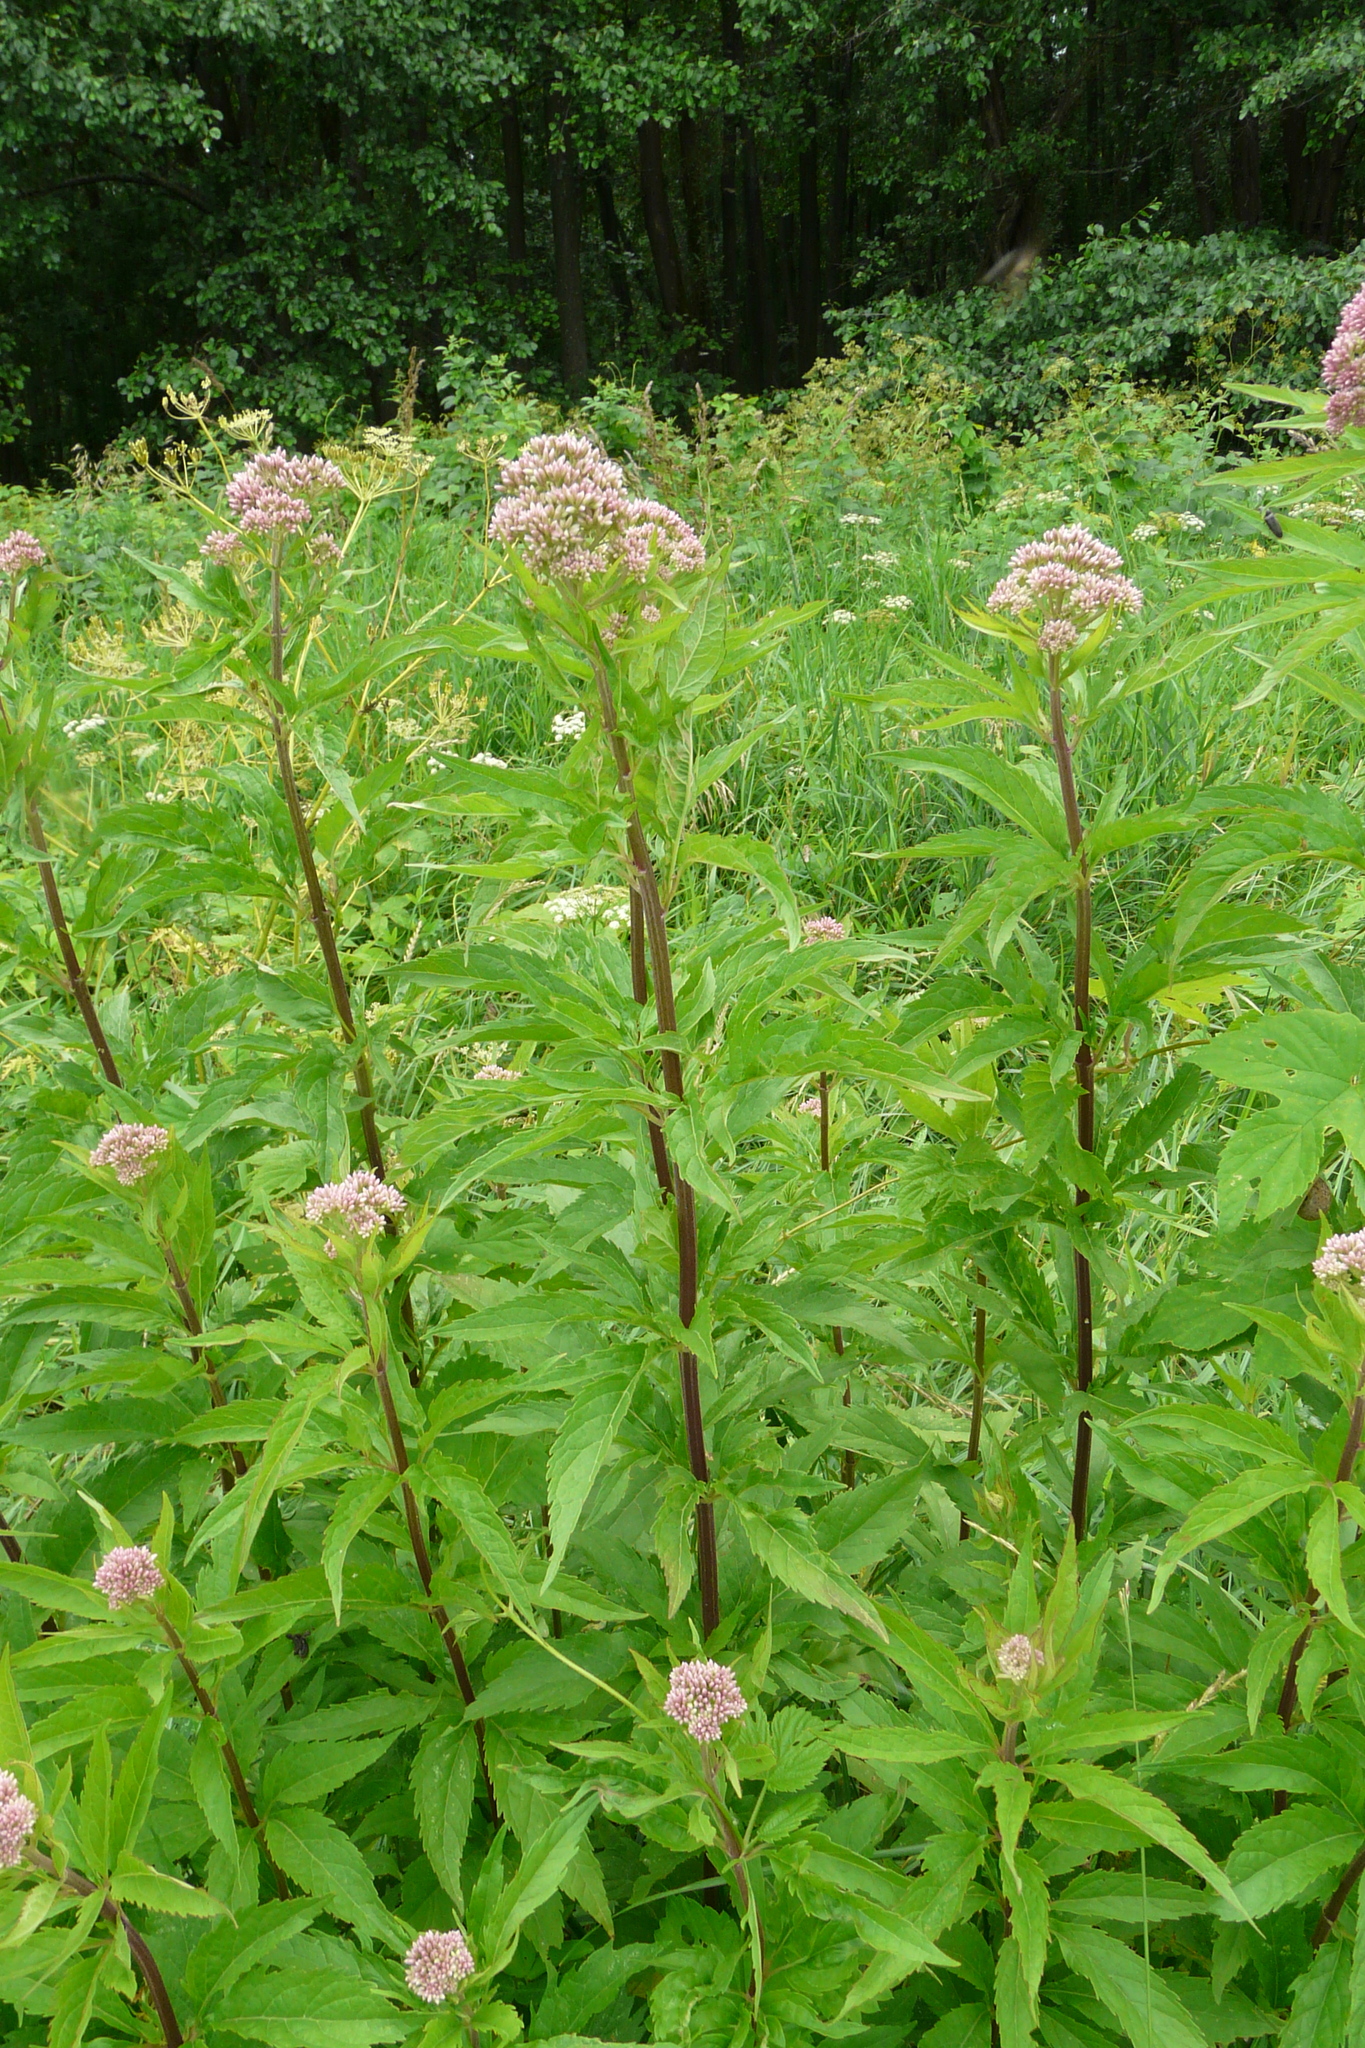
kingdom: Plantae
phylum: Tracheophyta
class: Magnoliopsida
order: Asterales
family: Asteraceae
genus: Eupatorium
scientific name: Eupatorium cannabinum
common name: Hemp-agrimony
